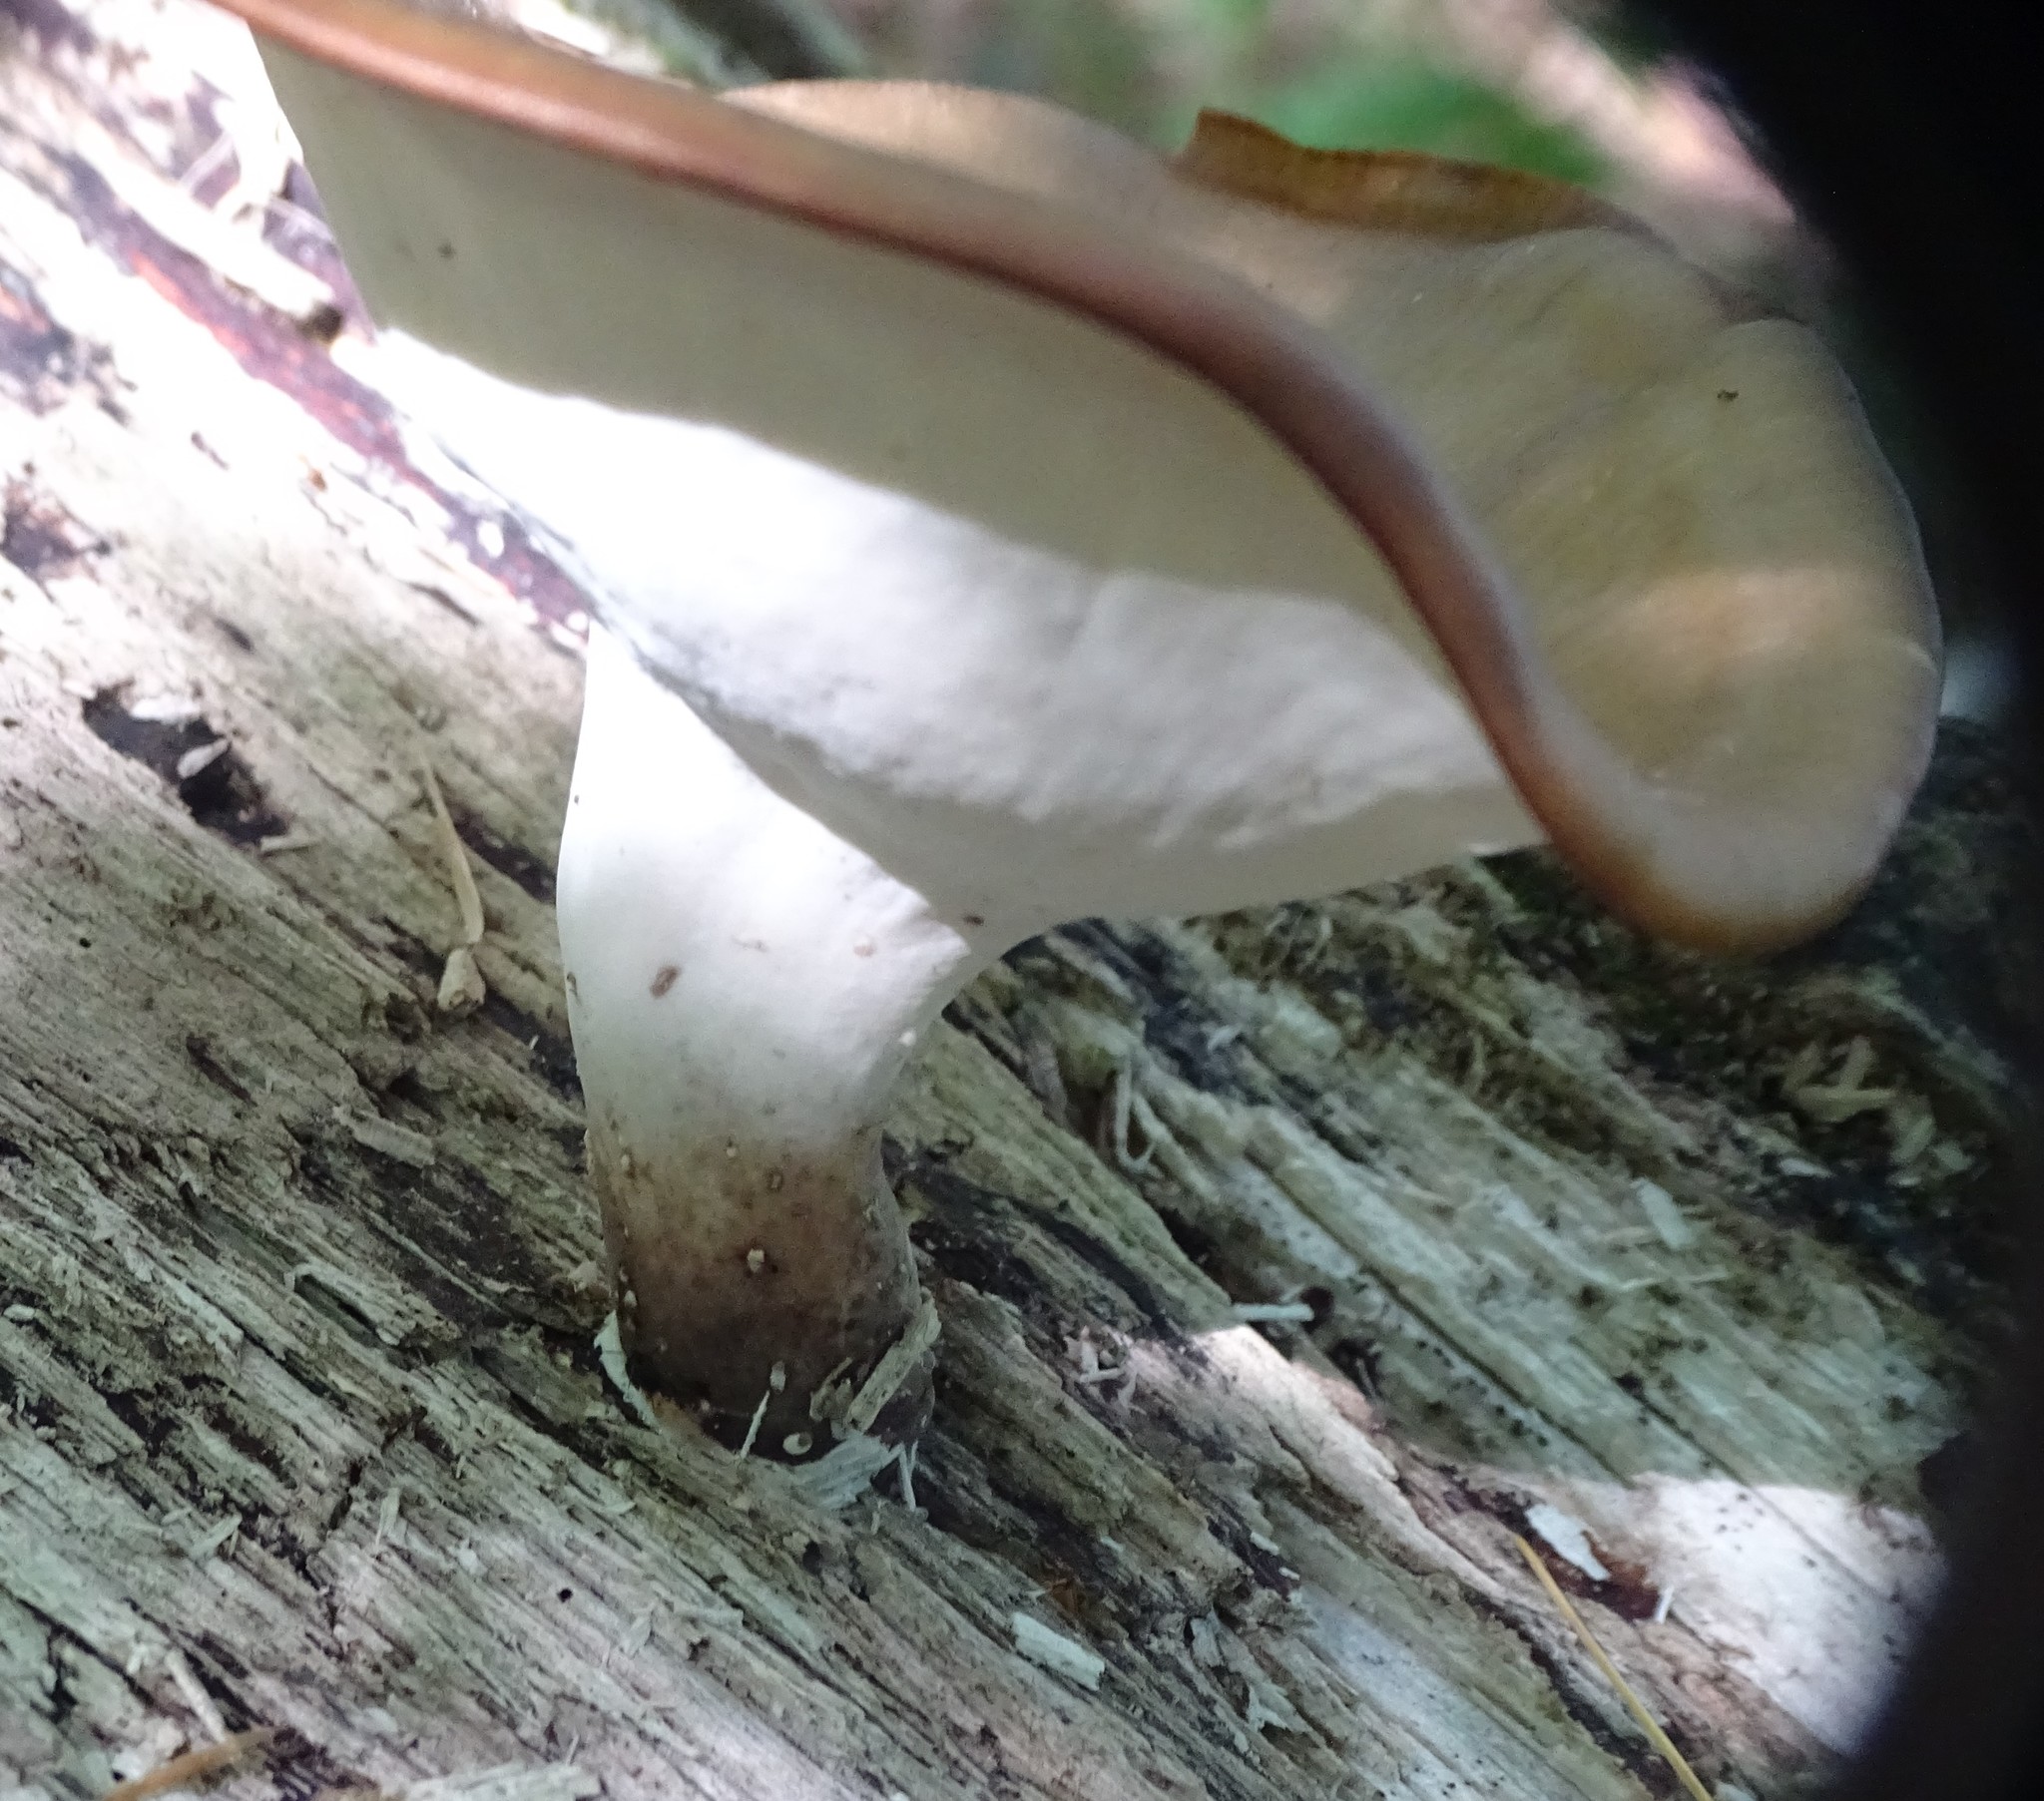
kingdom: Fungi
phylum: Basidiomycota
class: Agaricomycetes
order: Polyporales
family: Polyporaceae
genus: Picipes
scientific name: Picipes badius
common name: Bay polypore
